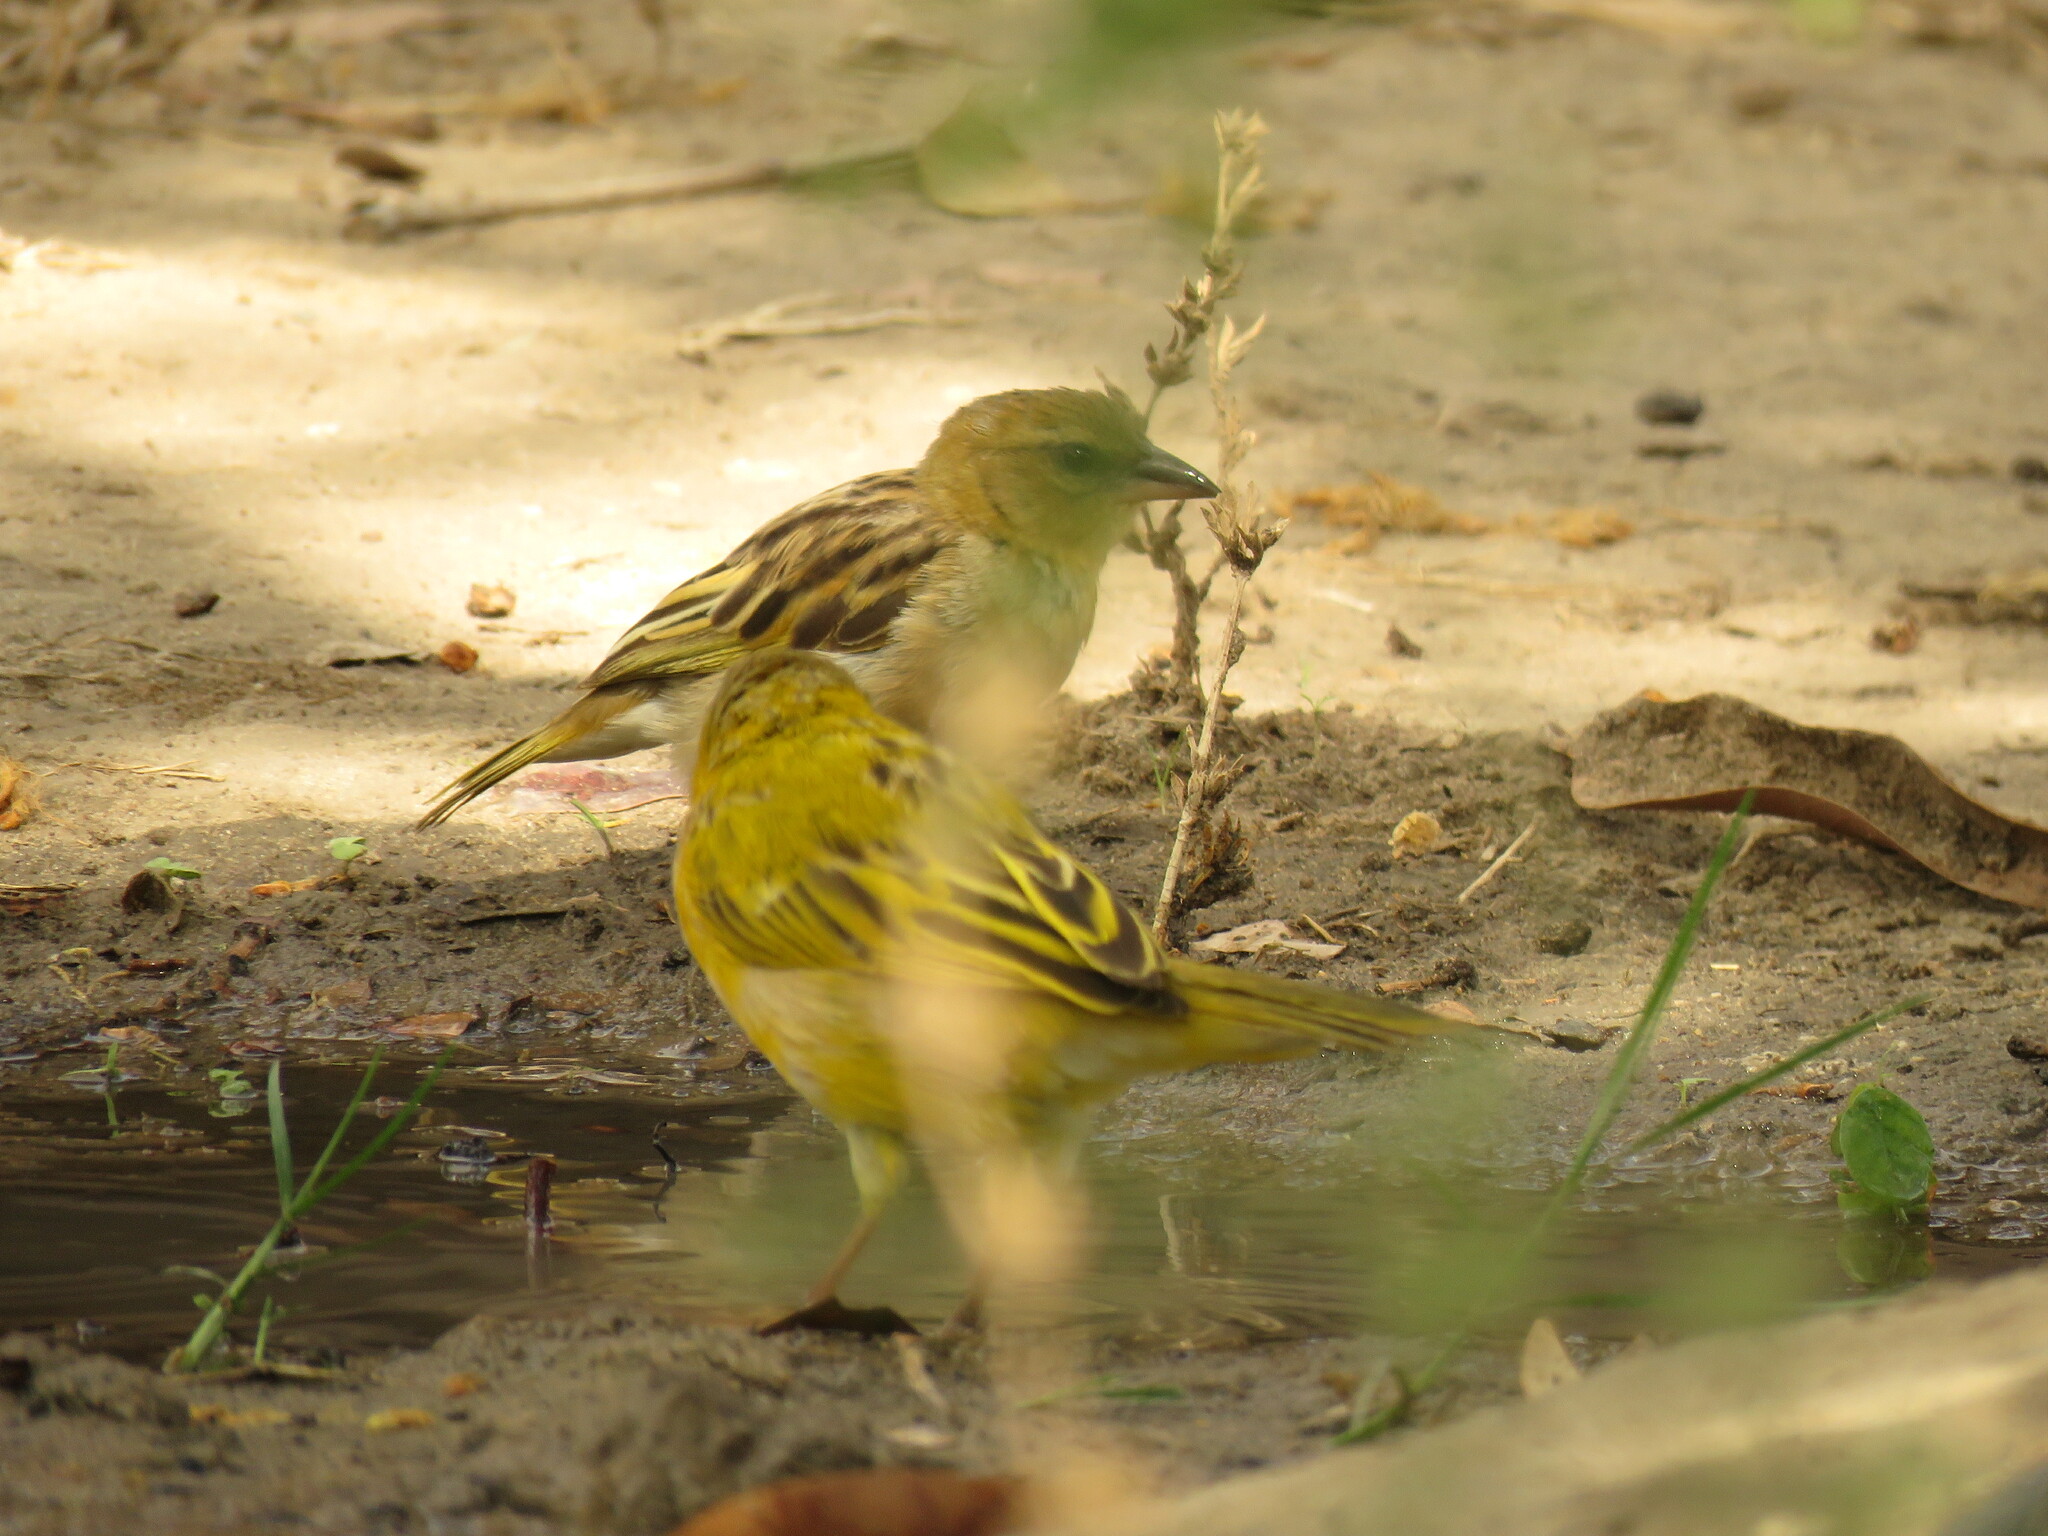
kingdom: Animalia
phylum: Chordata
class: Aves
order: Passeriformes
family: Ploceidae
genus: Ploceus
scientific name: Ploceus xanthopterus
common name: Southern brown-throated weaver
